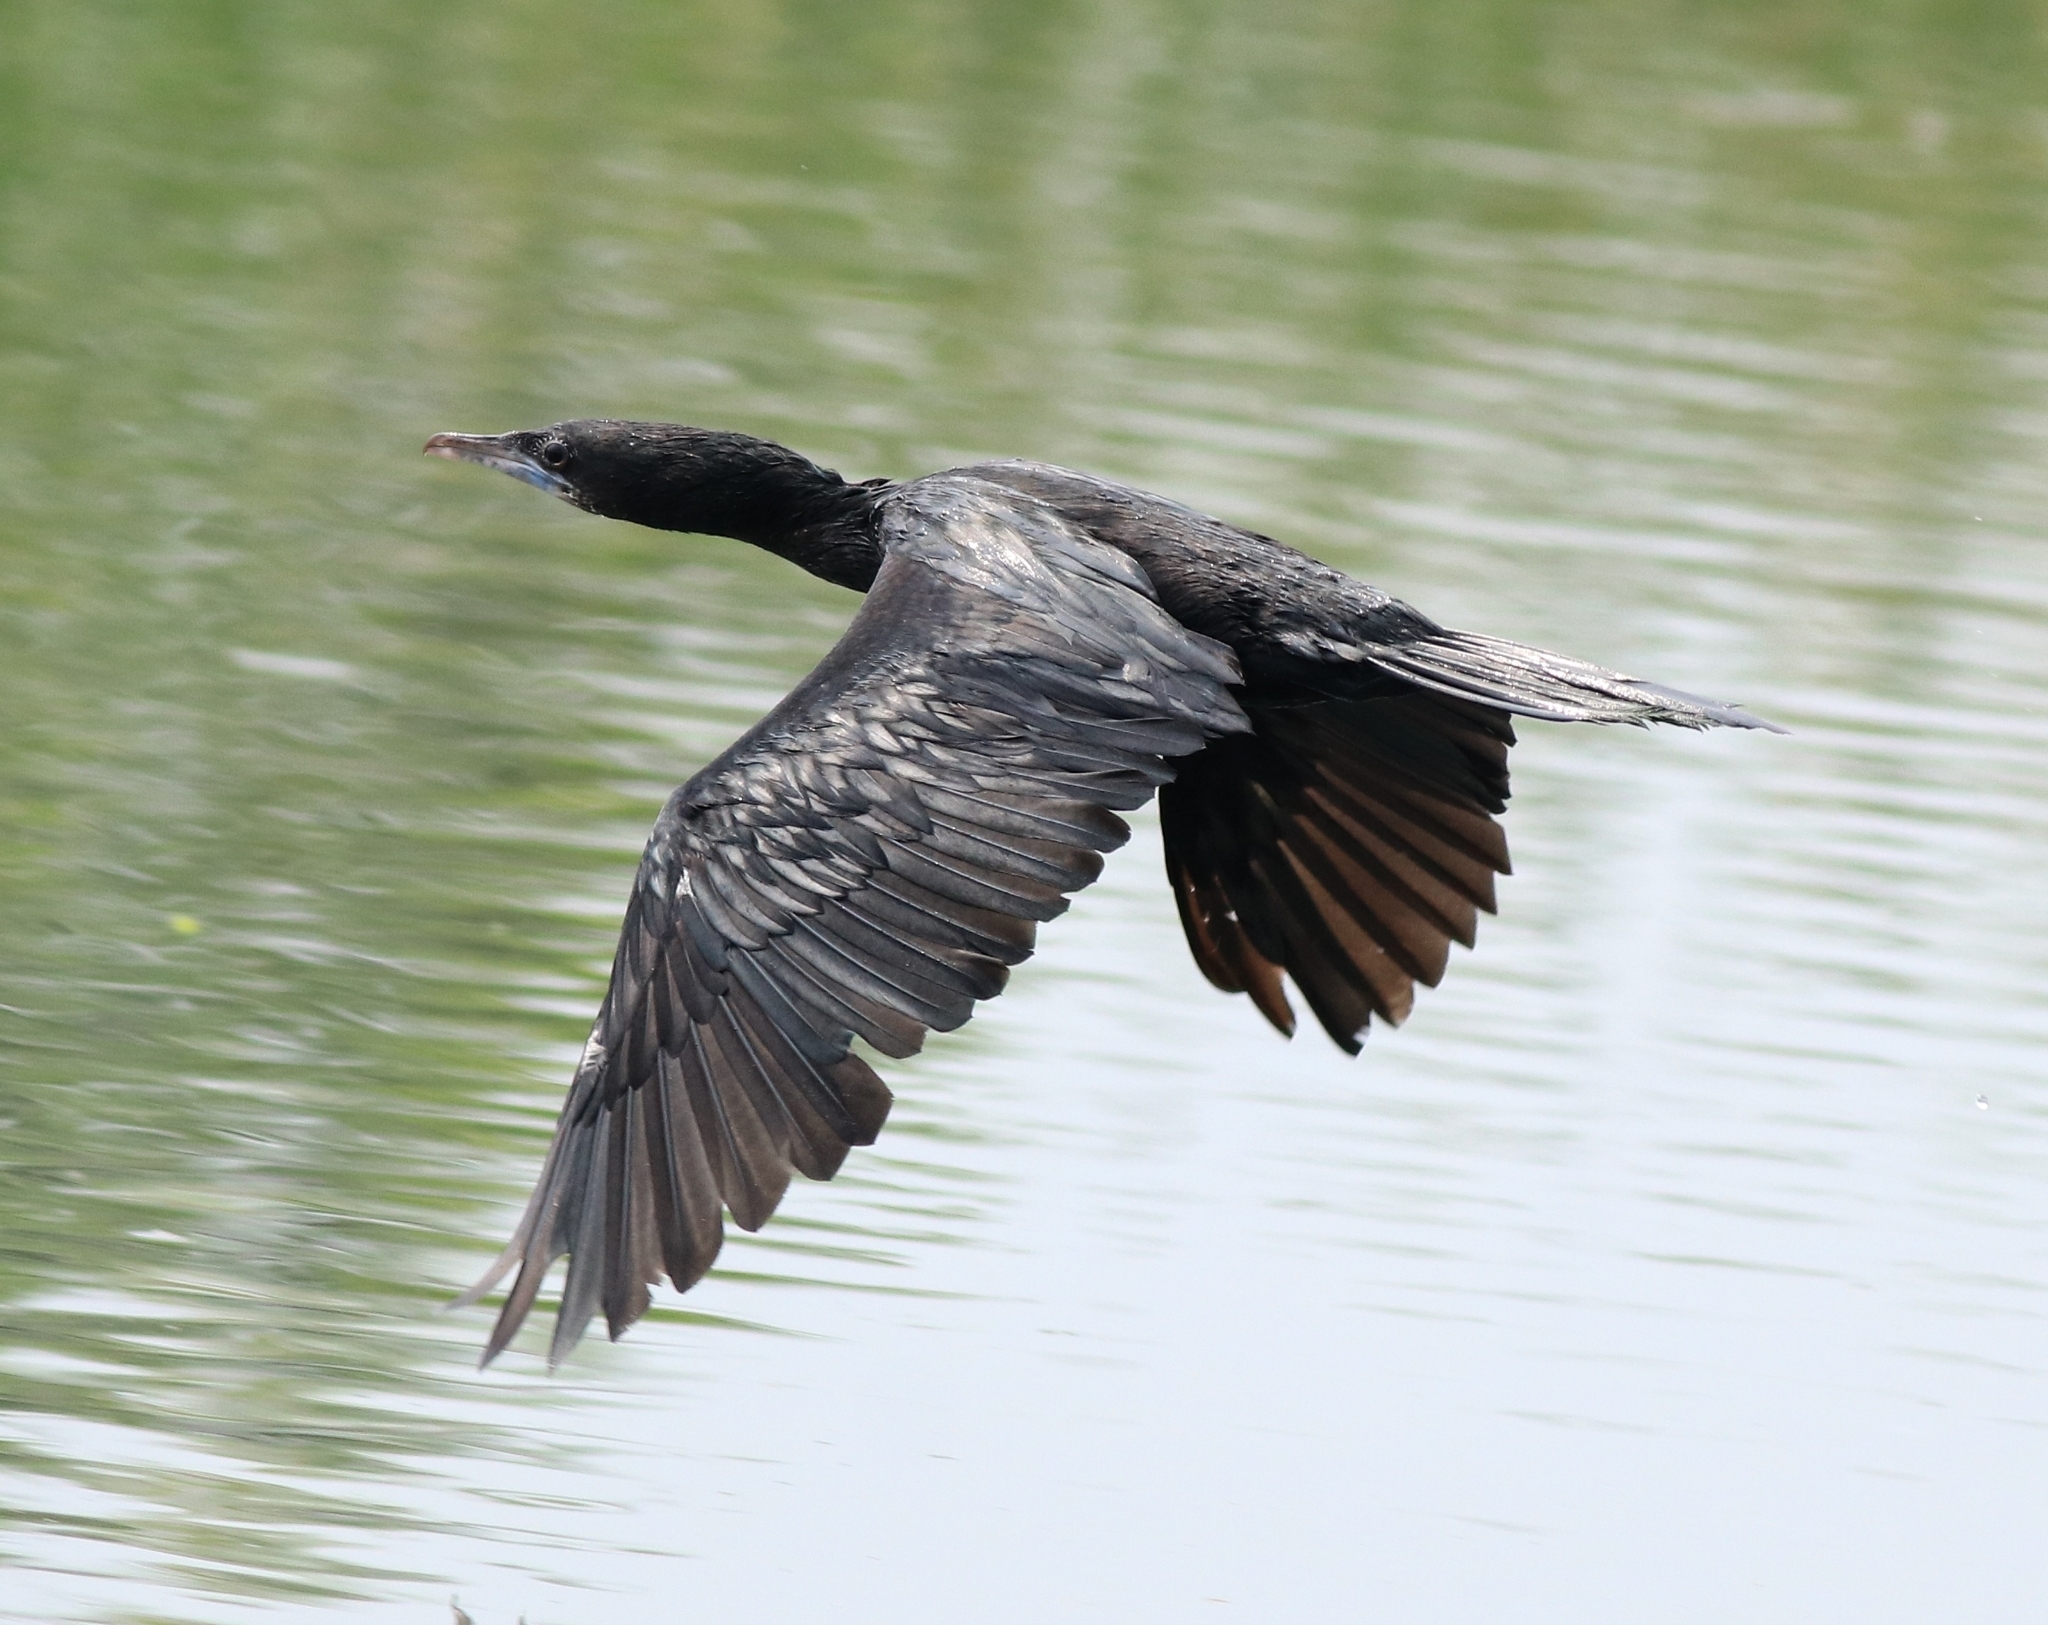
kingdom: Animalia
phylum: Chordata
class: Aves
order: Suliformes
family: Phalacrocoracidae
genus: Microcarbo
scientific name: Microcarbo niger
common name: Little cormorant
